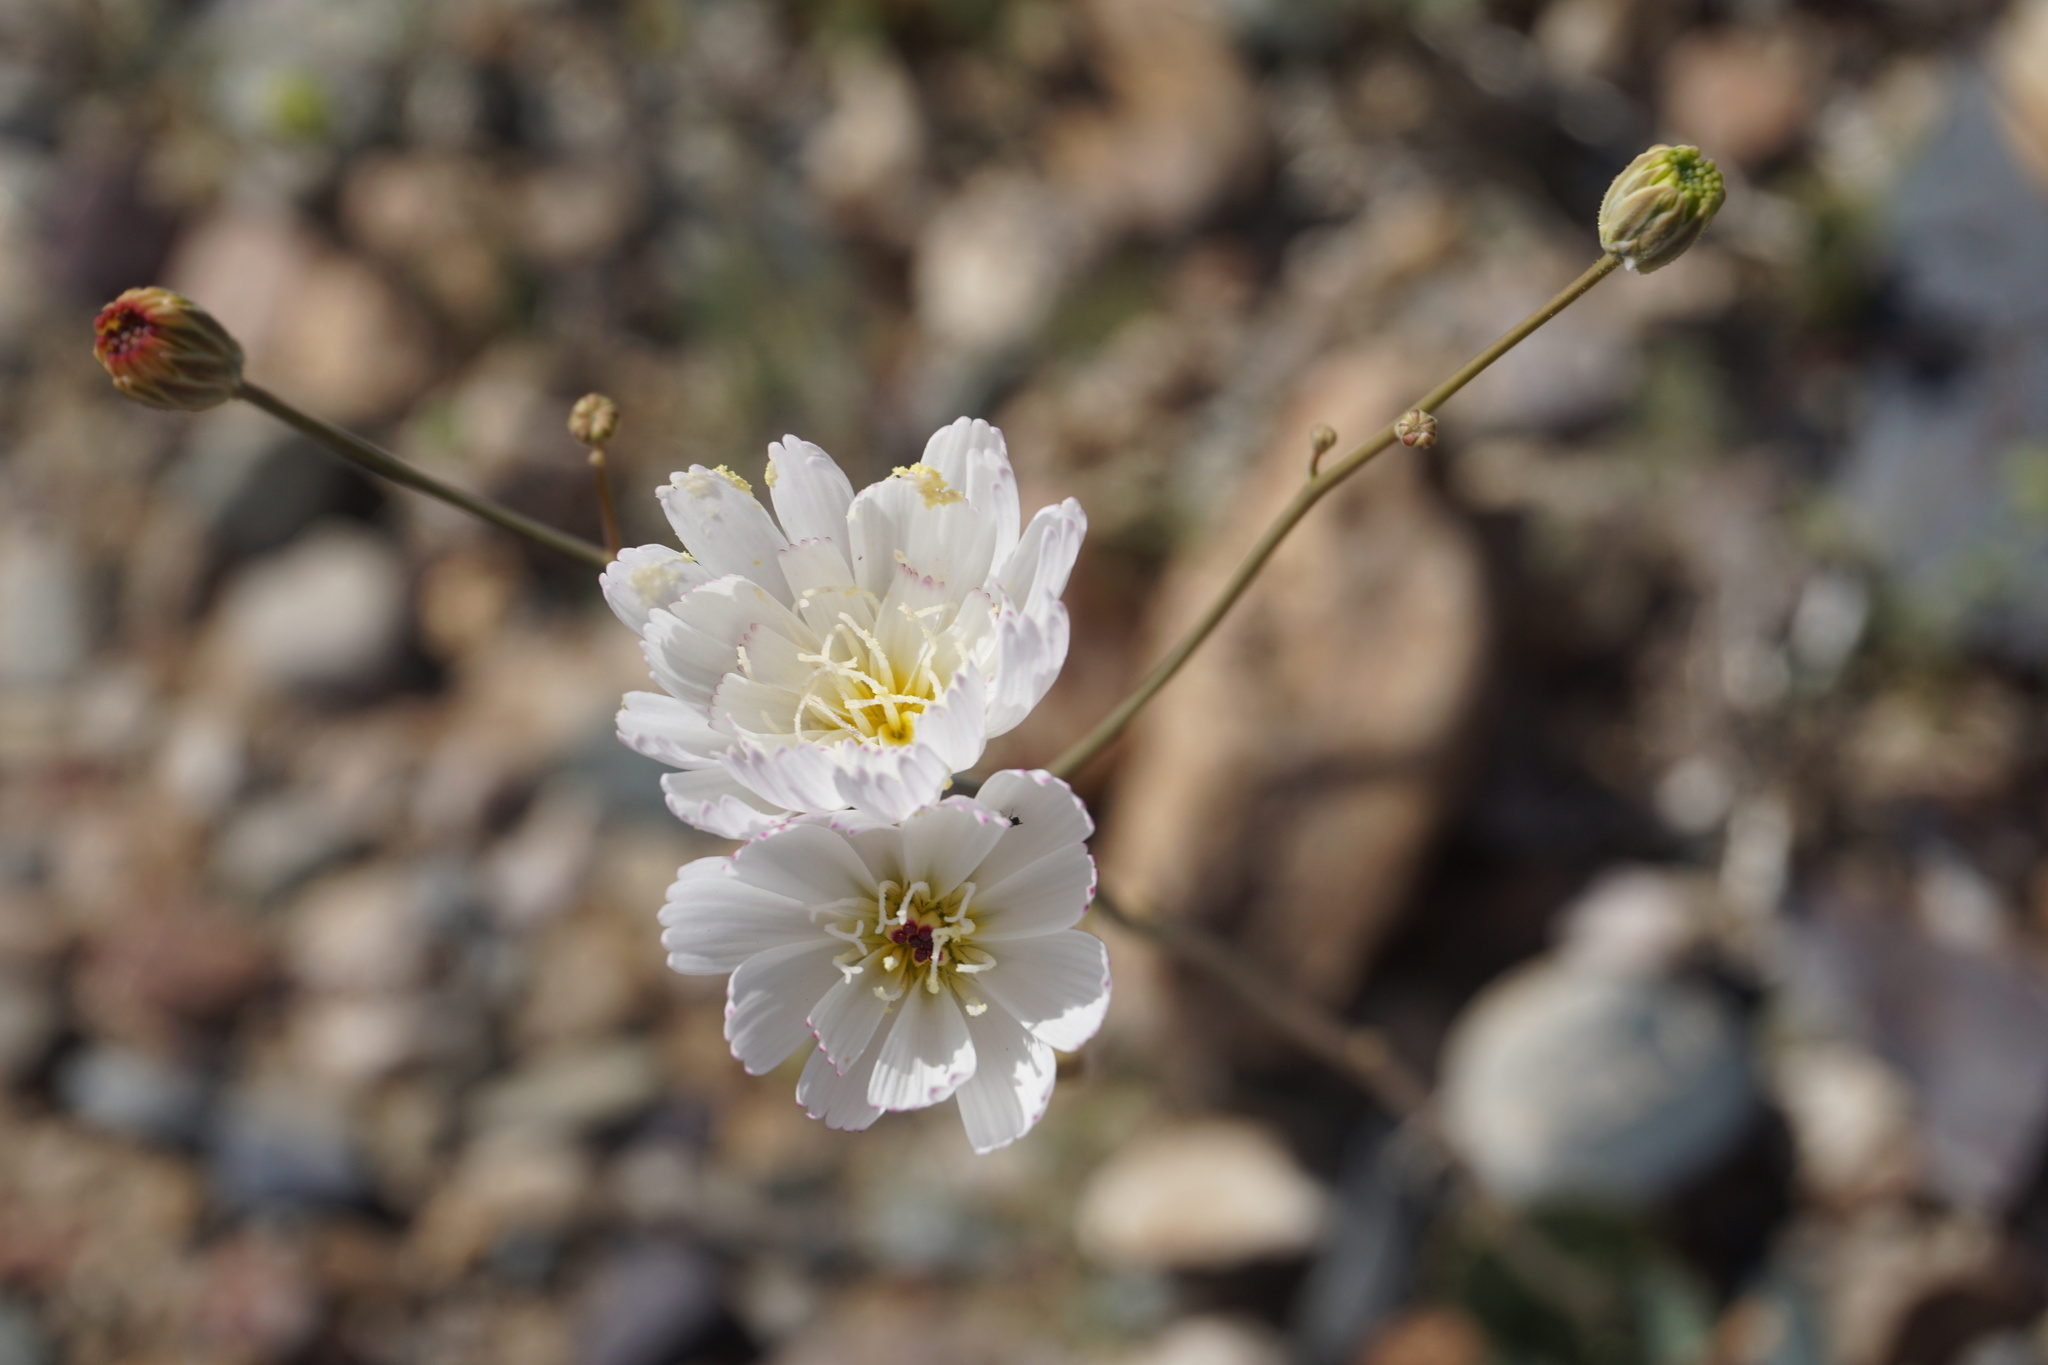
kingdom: Plantae
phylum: Tracheophyta
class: Magnoliopsida
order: Asterales
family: Asteraceae
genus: Atrichoseris
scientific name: Atrichoseris platyphylla
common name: Tobaccoweed
